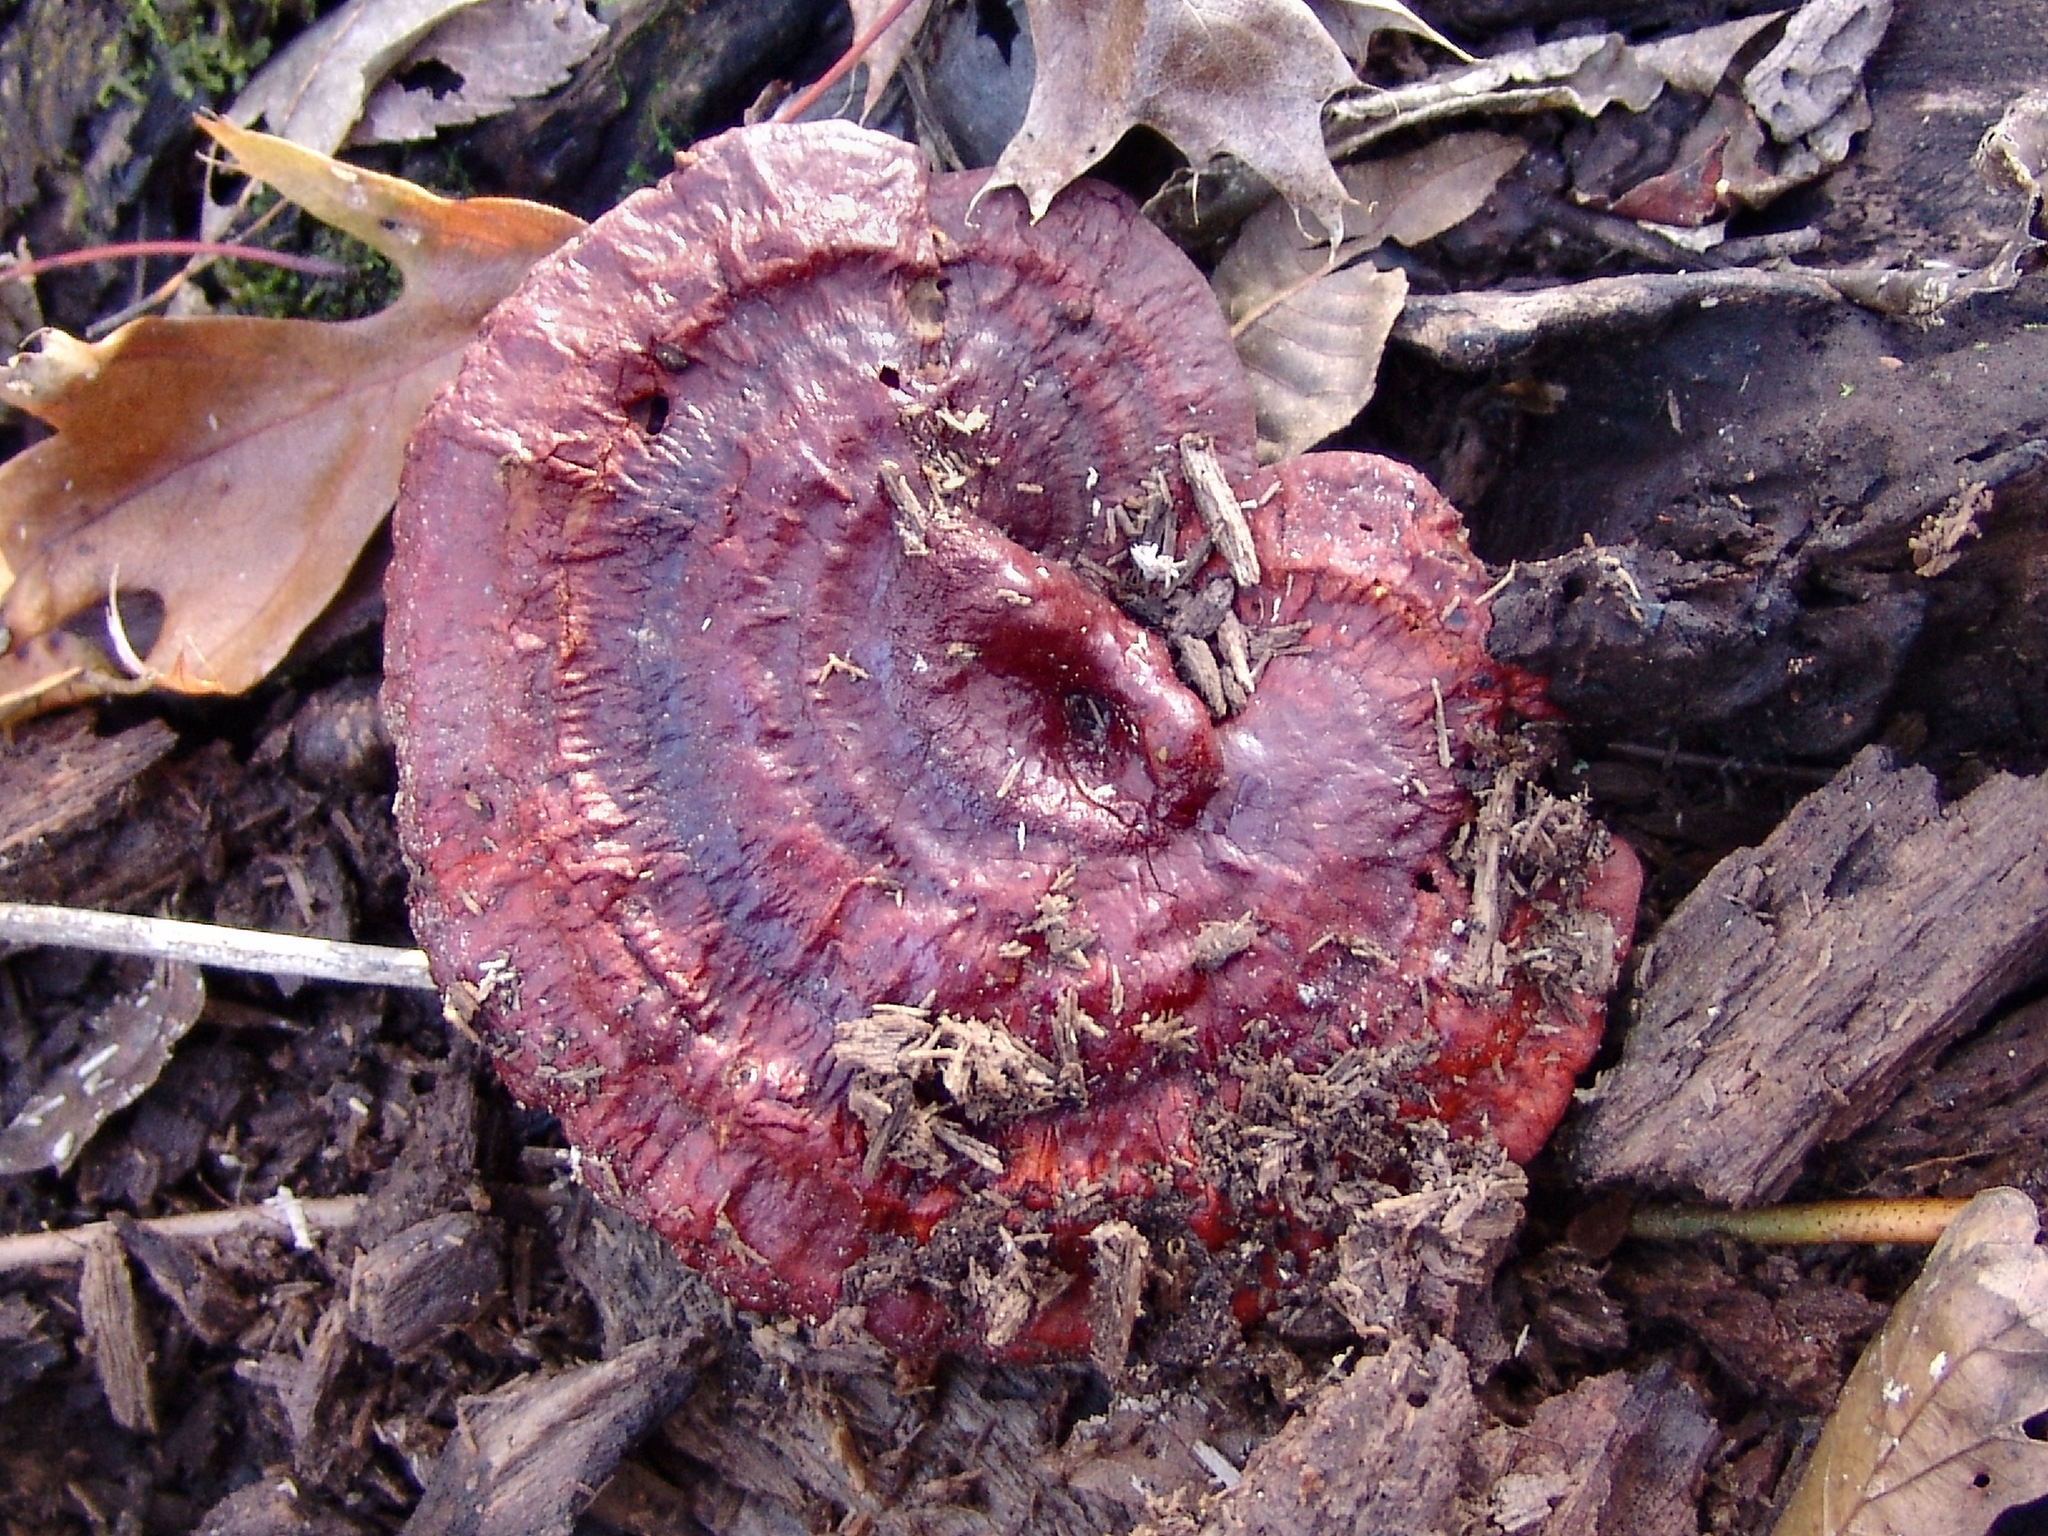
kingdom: Fungi
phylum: Basidiomycota
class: Agaricomycetes
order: Polyporales
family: Polyporaceae
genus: Ganoderma
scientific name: Ganoderma resinaceum
